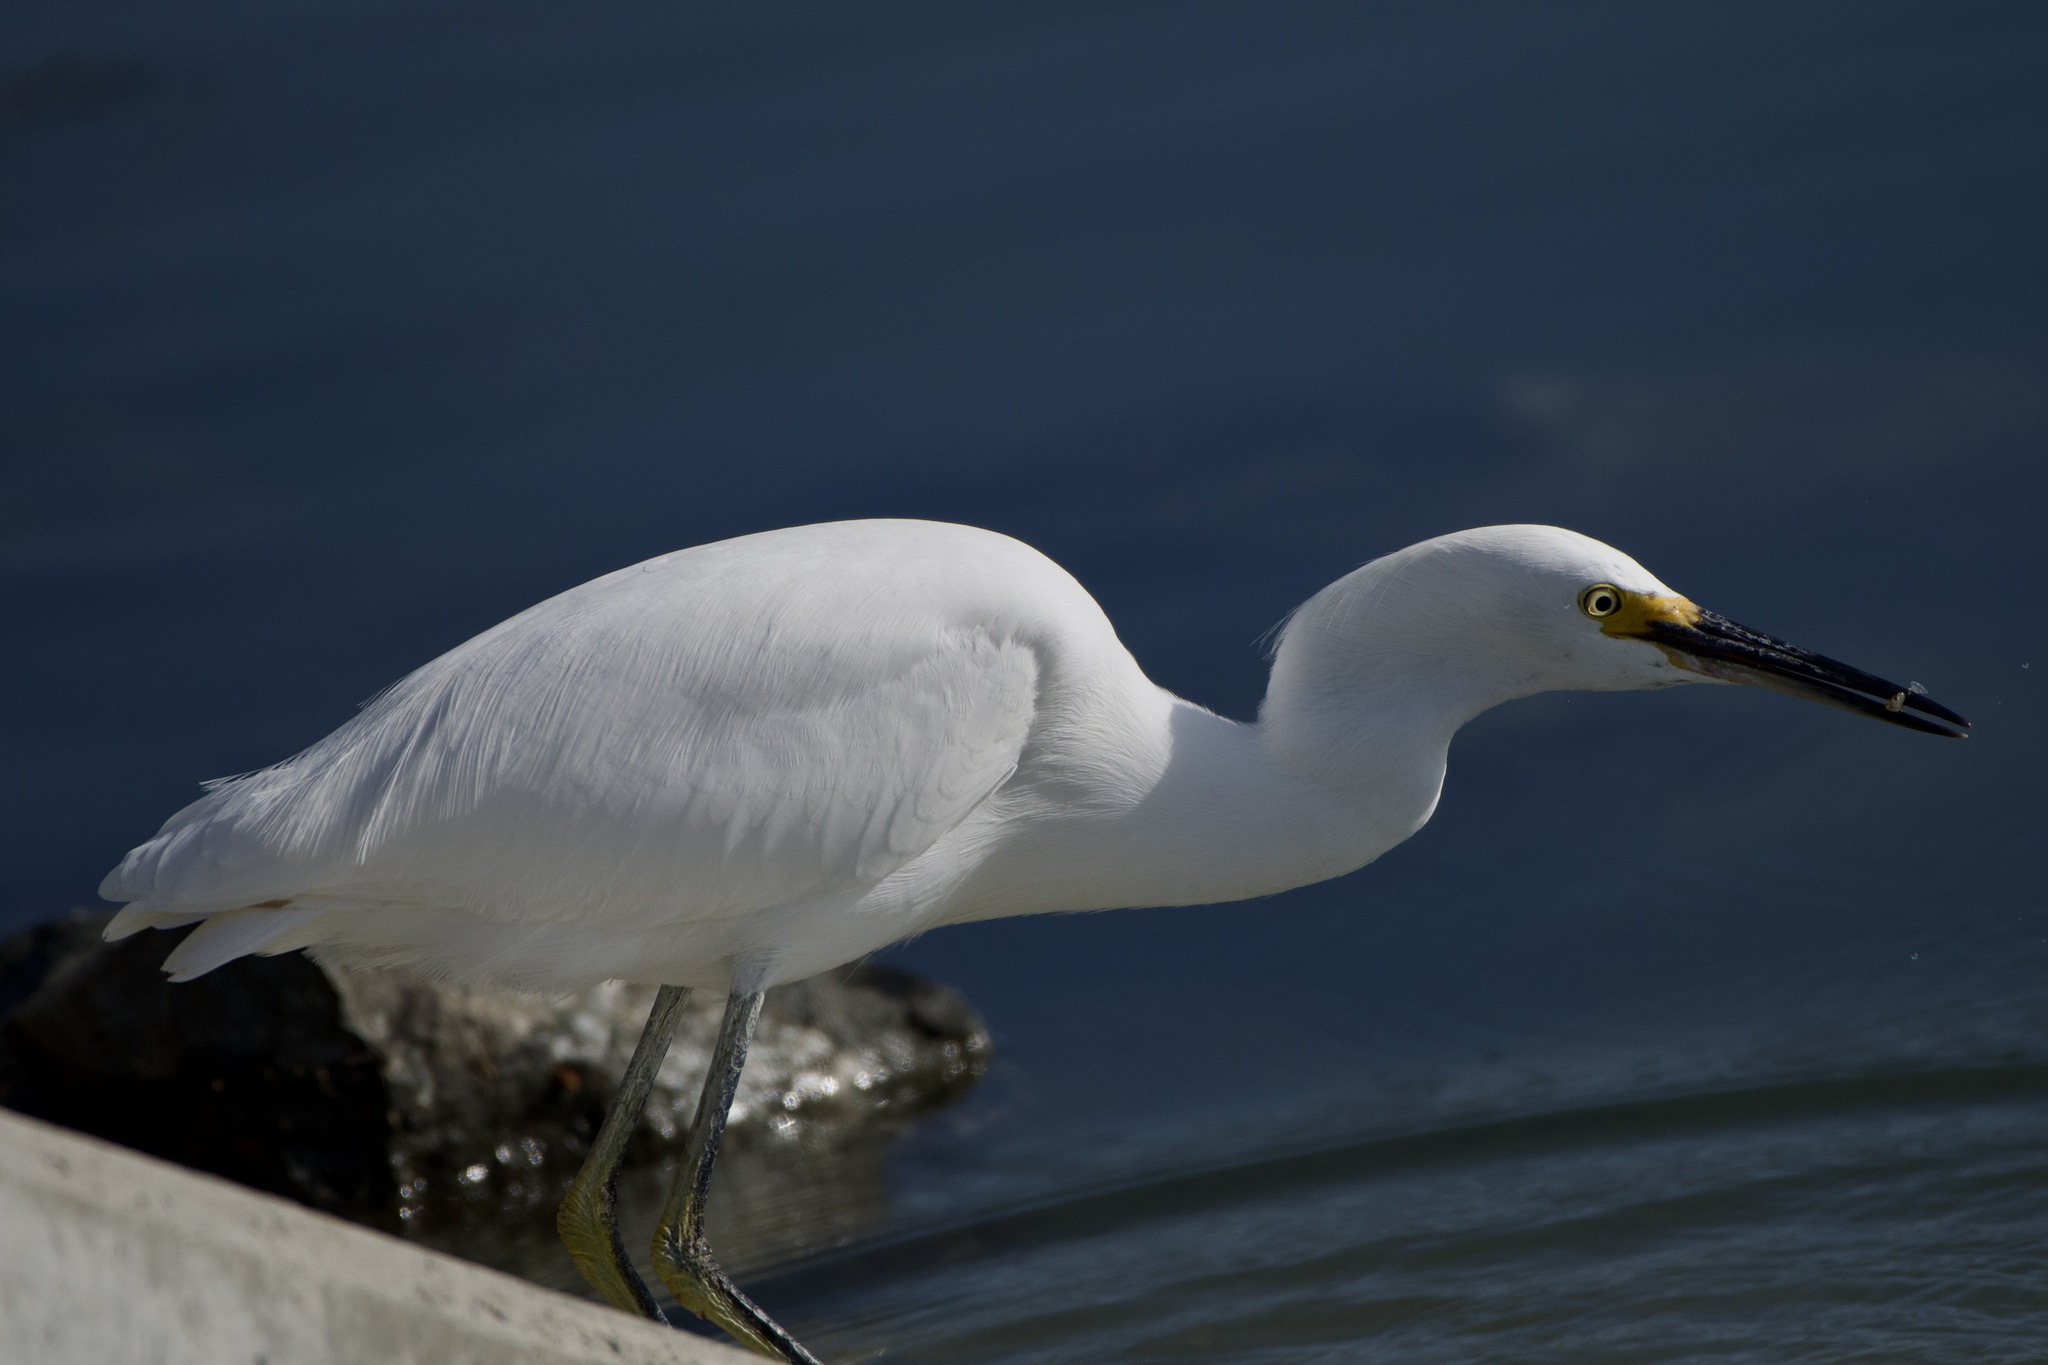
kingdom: Animalia
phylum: Chordata
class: Aves
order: Pelecaniformes
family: Ardeidae
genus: Egretta
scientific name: Egretta thula
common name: Snowy egret
